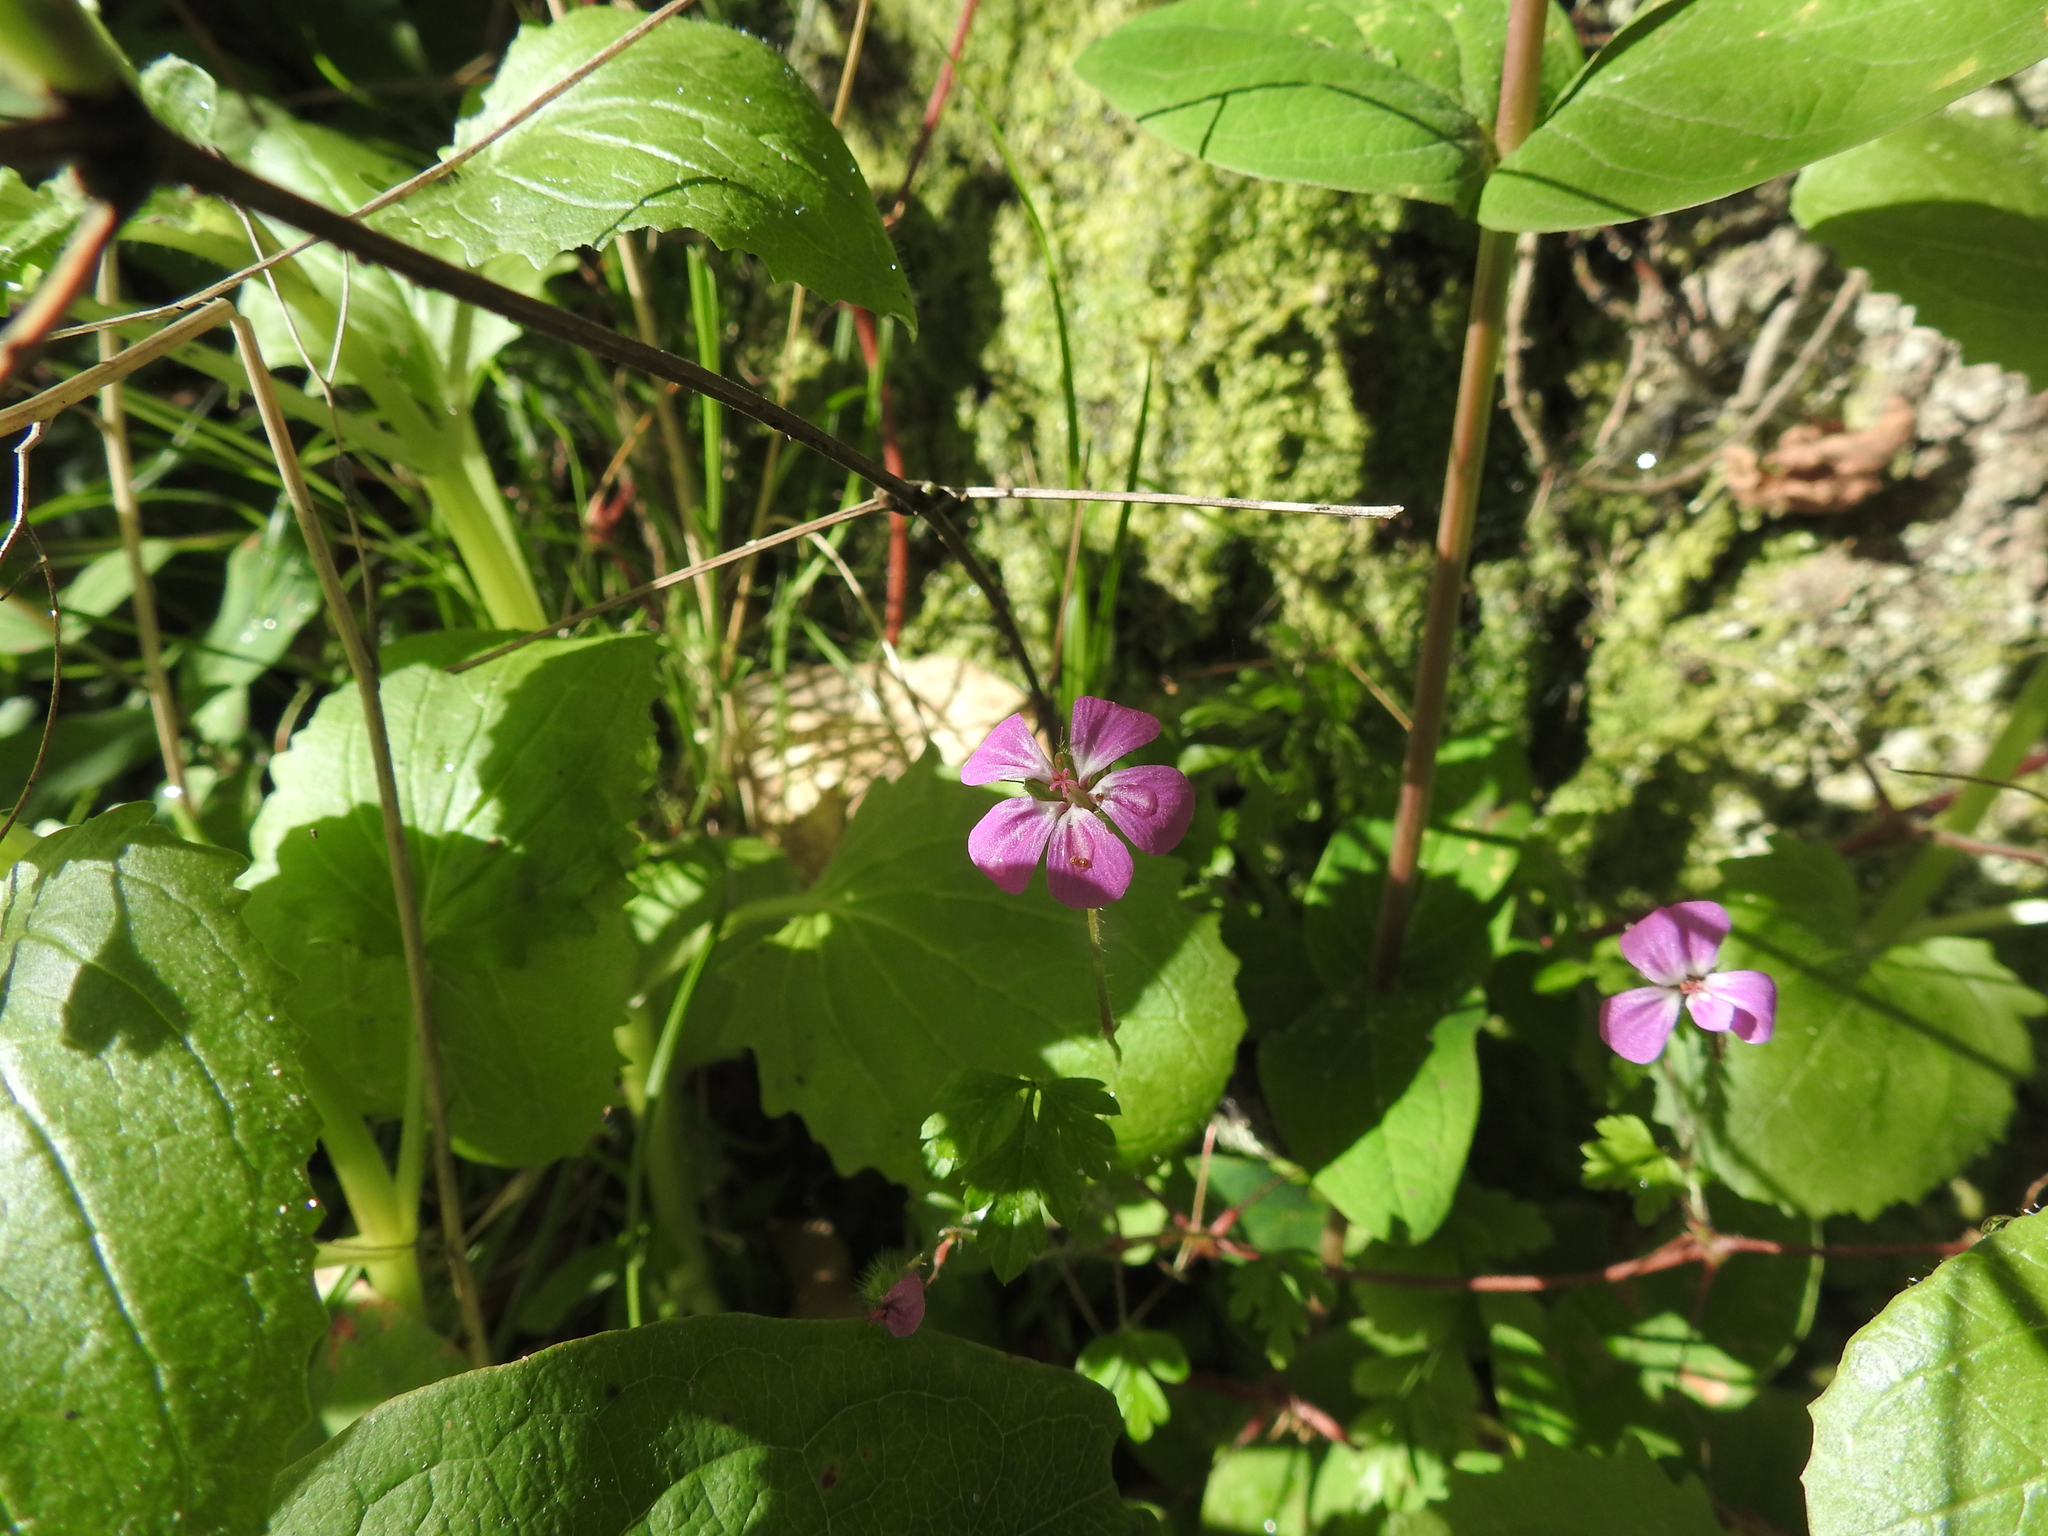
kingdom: Plantae
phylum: Tracheophyta
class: Magnoliopsida
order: Geraniales
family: Geraniaceae
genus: Geranium
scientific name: Geranium robertianum
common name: Herb-robert
